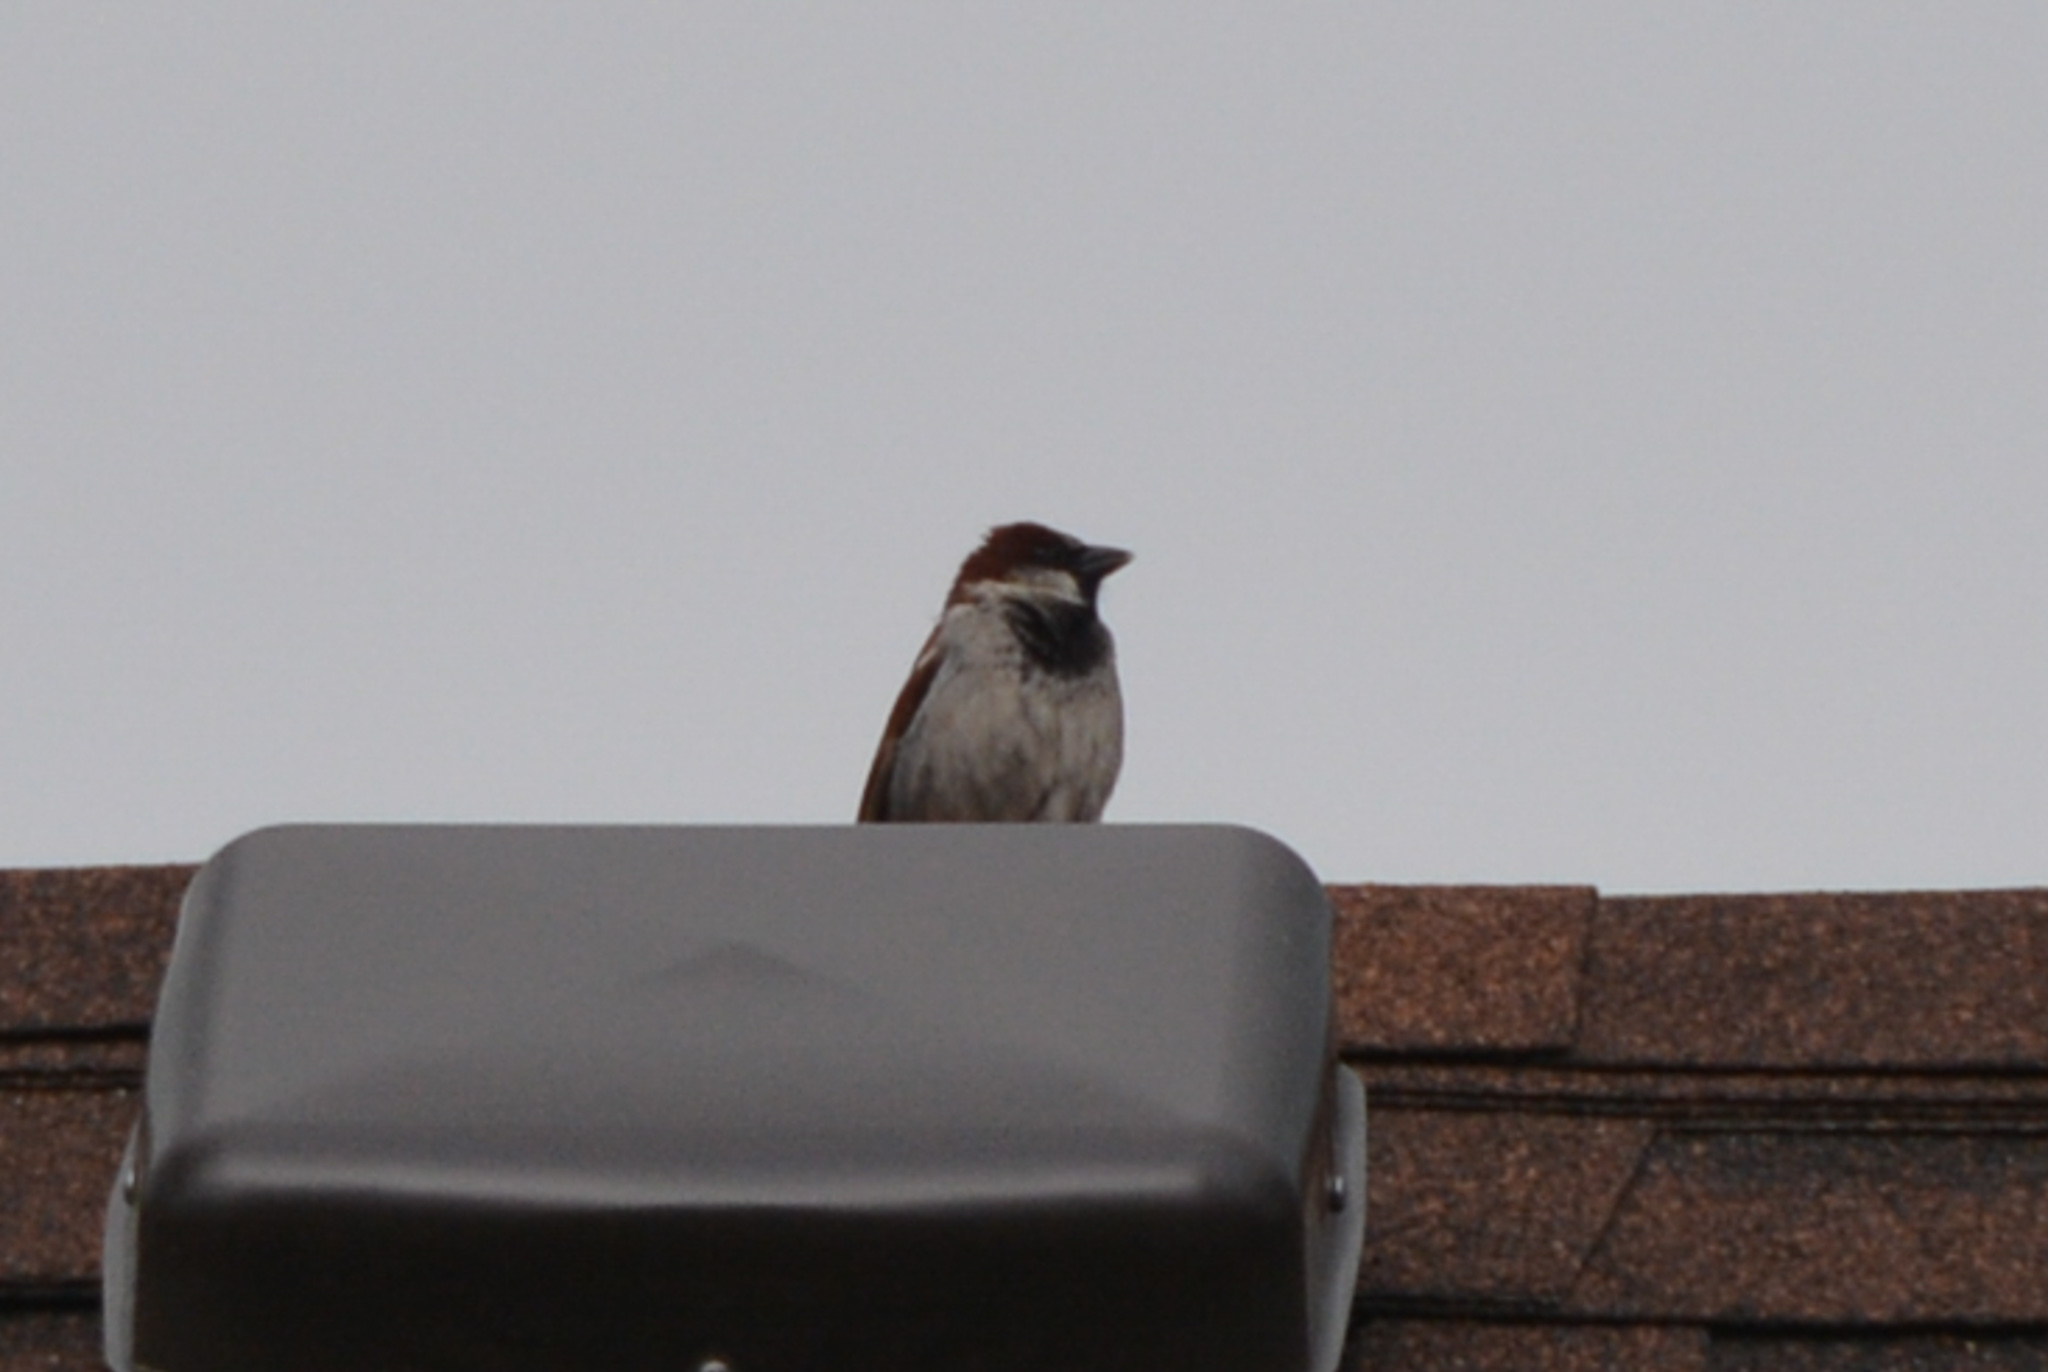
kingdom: Animalia
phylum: Chordata
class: Aves
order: Passeriformes
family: Passeridae
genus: Passer
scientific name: Passer domesticus
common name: House sparrow
